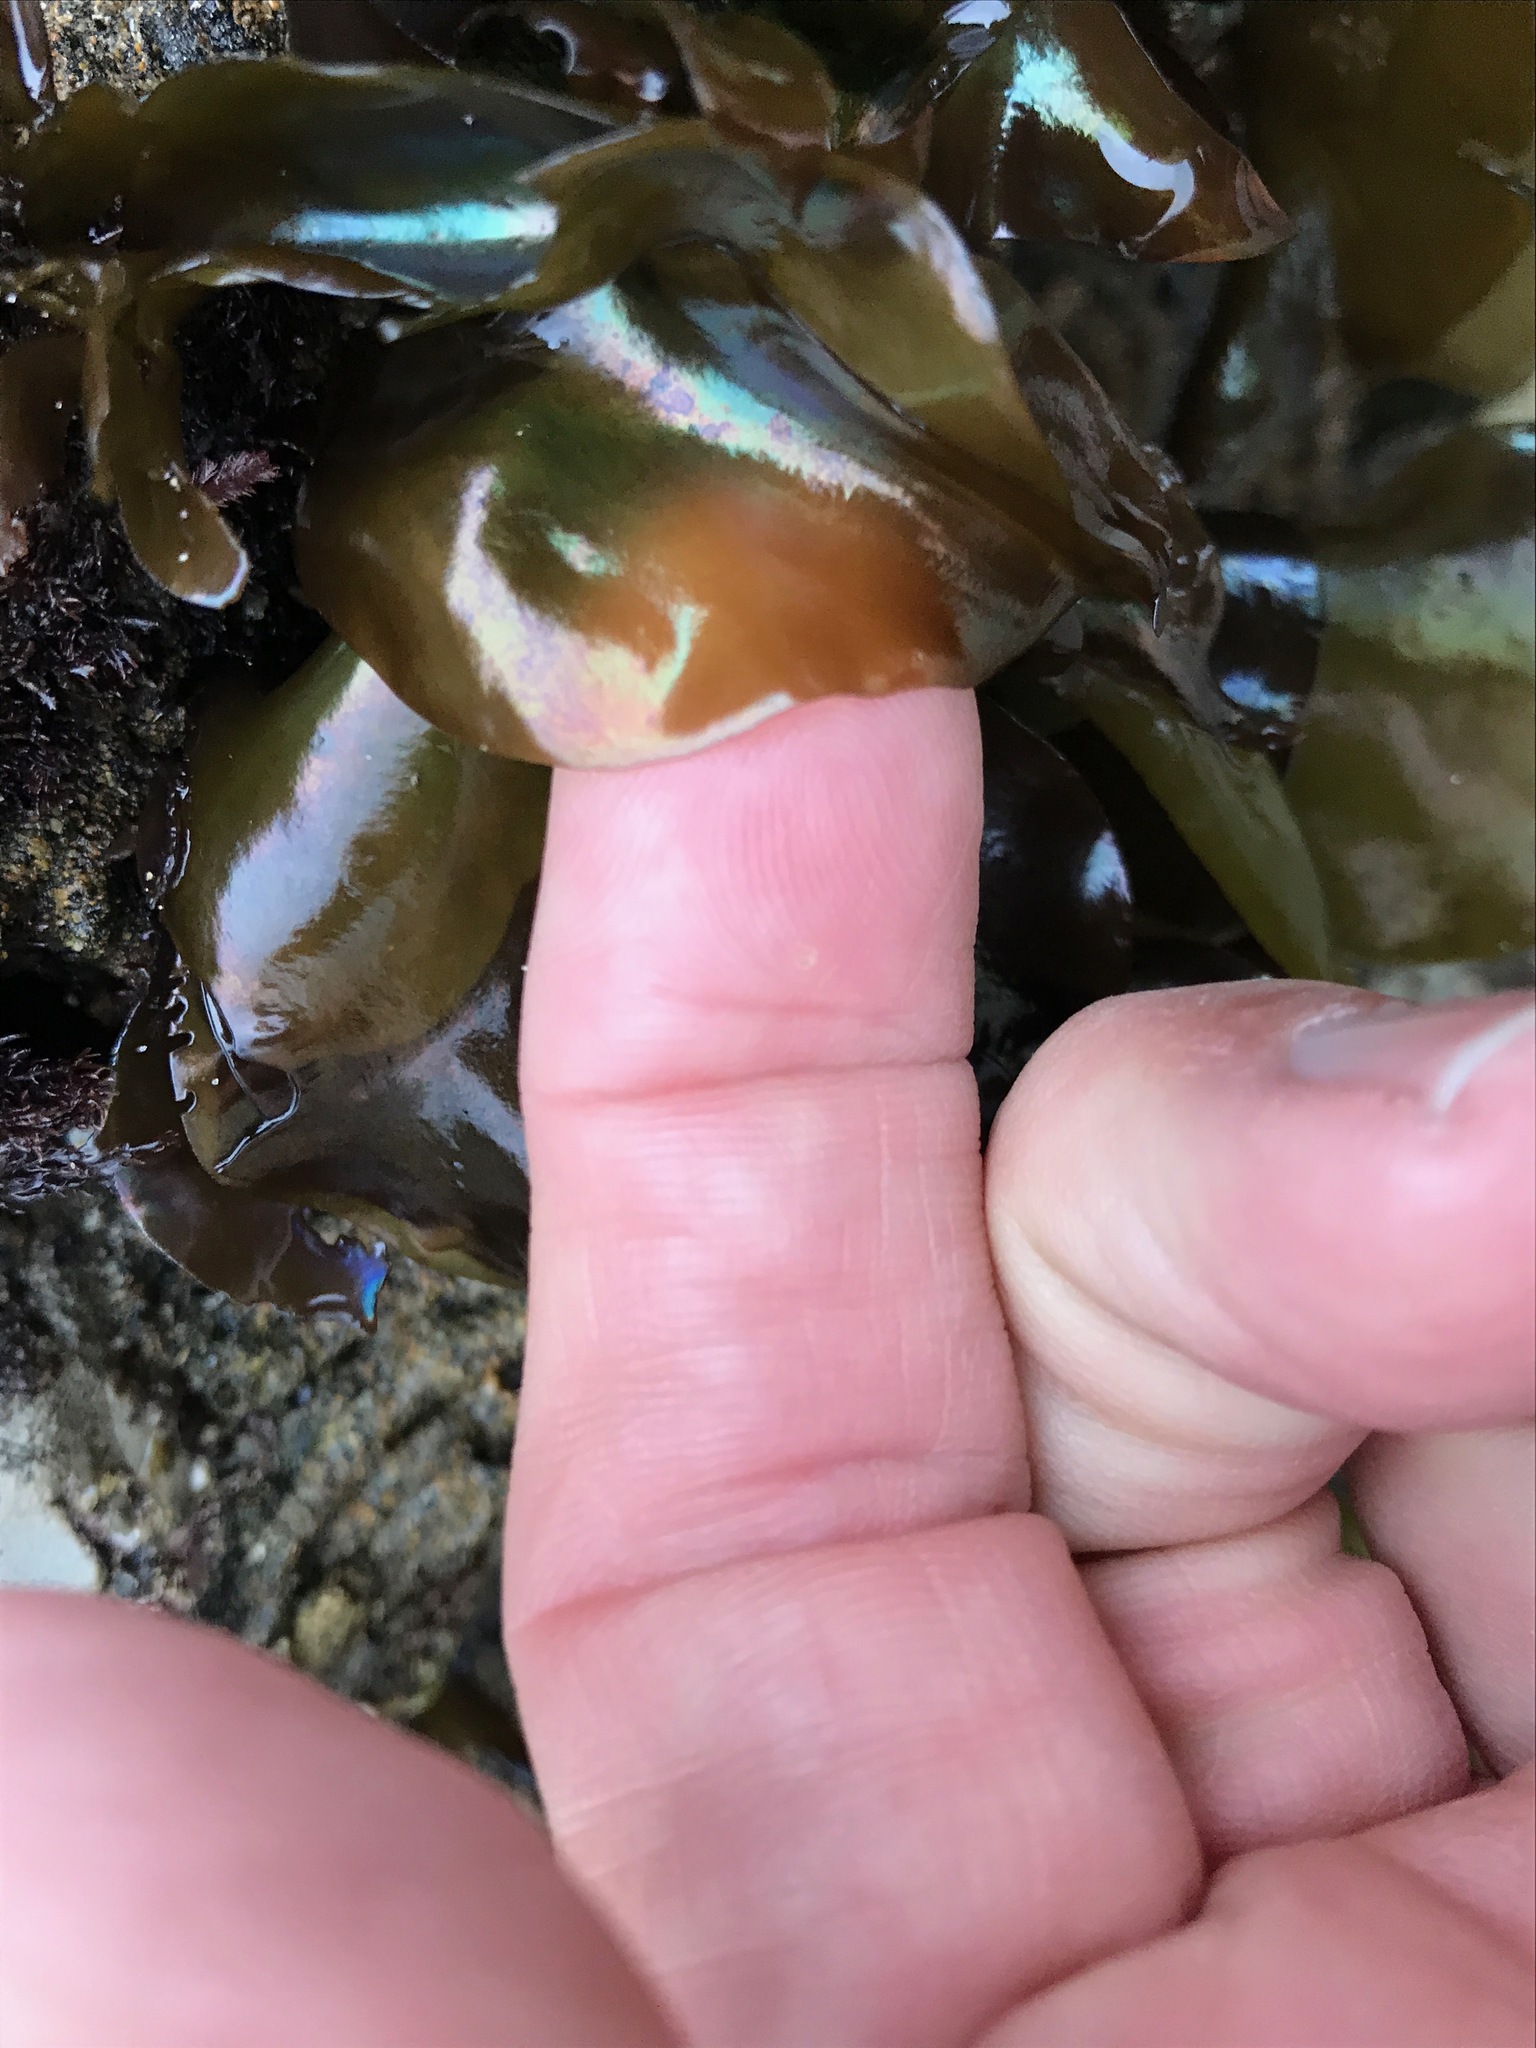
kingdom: Plantae
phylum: Rhodophyta
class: Florideophyceae
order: Gigartinales
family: Gigartinaceae
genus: Mazzaella
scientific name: Mazzaella splendens
